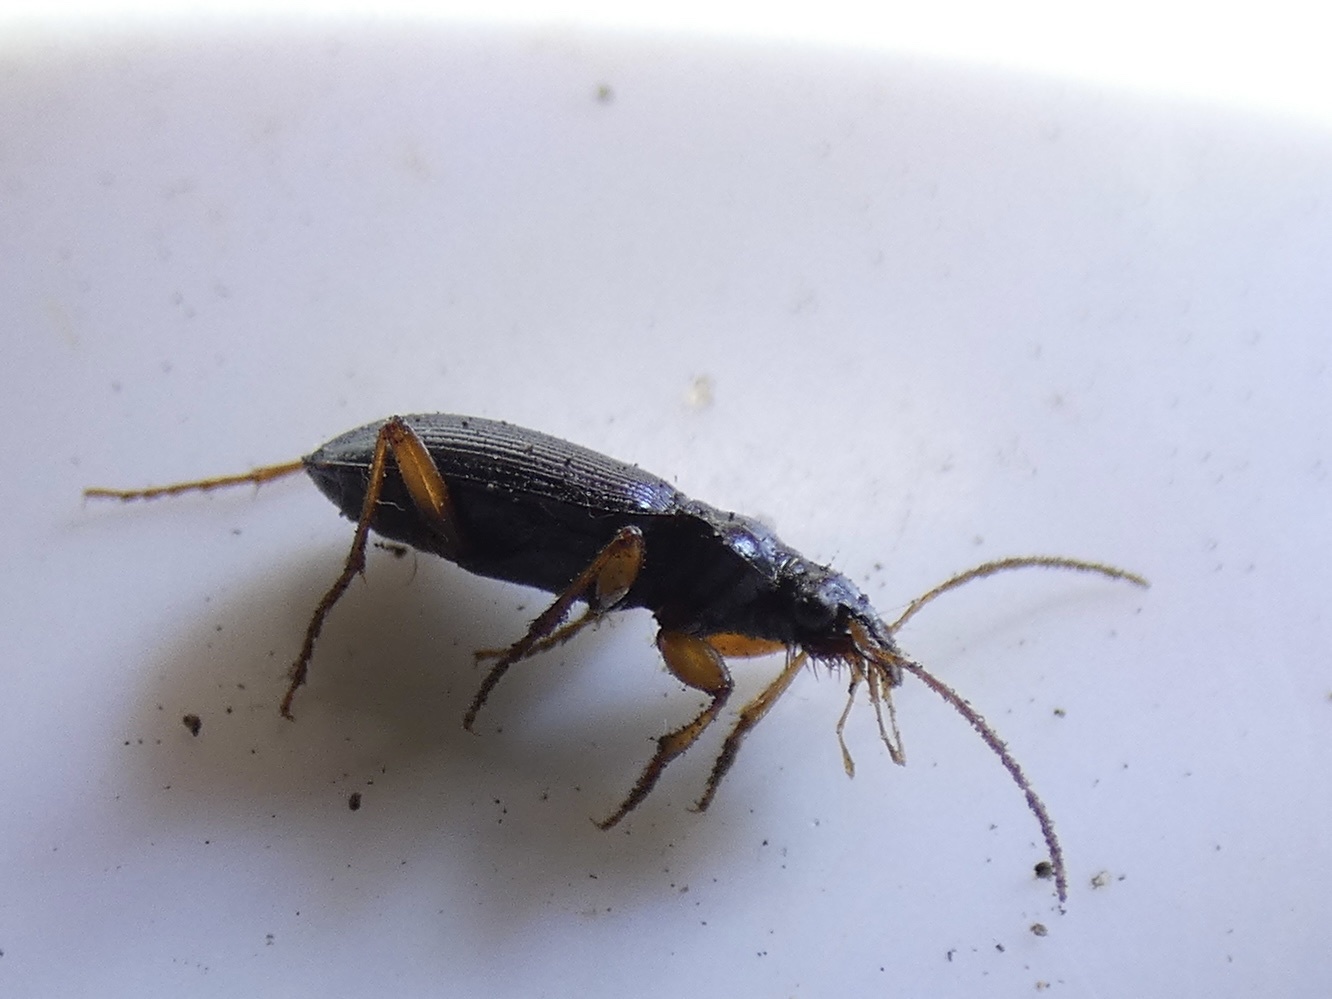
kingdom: Animalia
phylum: Arthropoda
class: Insecta
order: Coleoptera
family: Carabidae
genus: Leistus
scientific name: Leistus fulvibarbis
